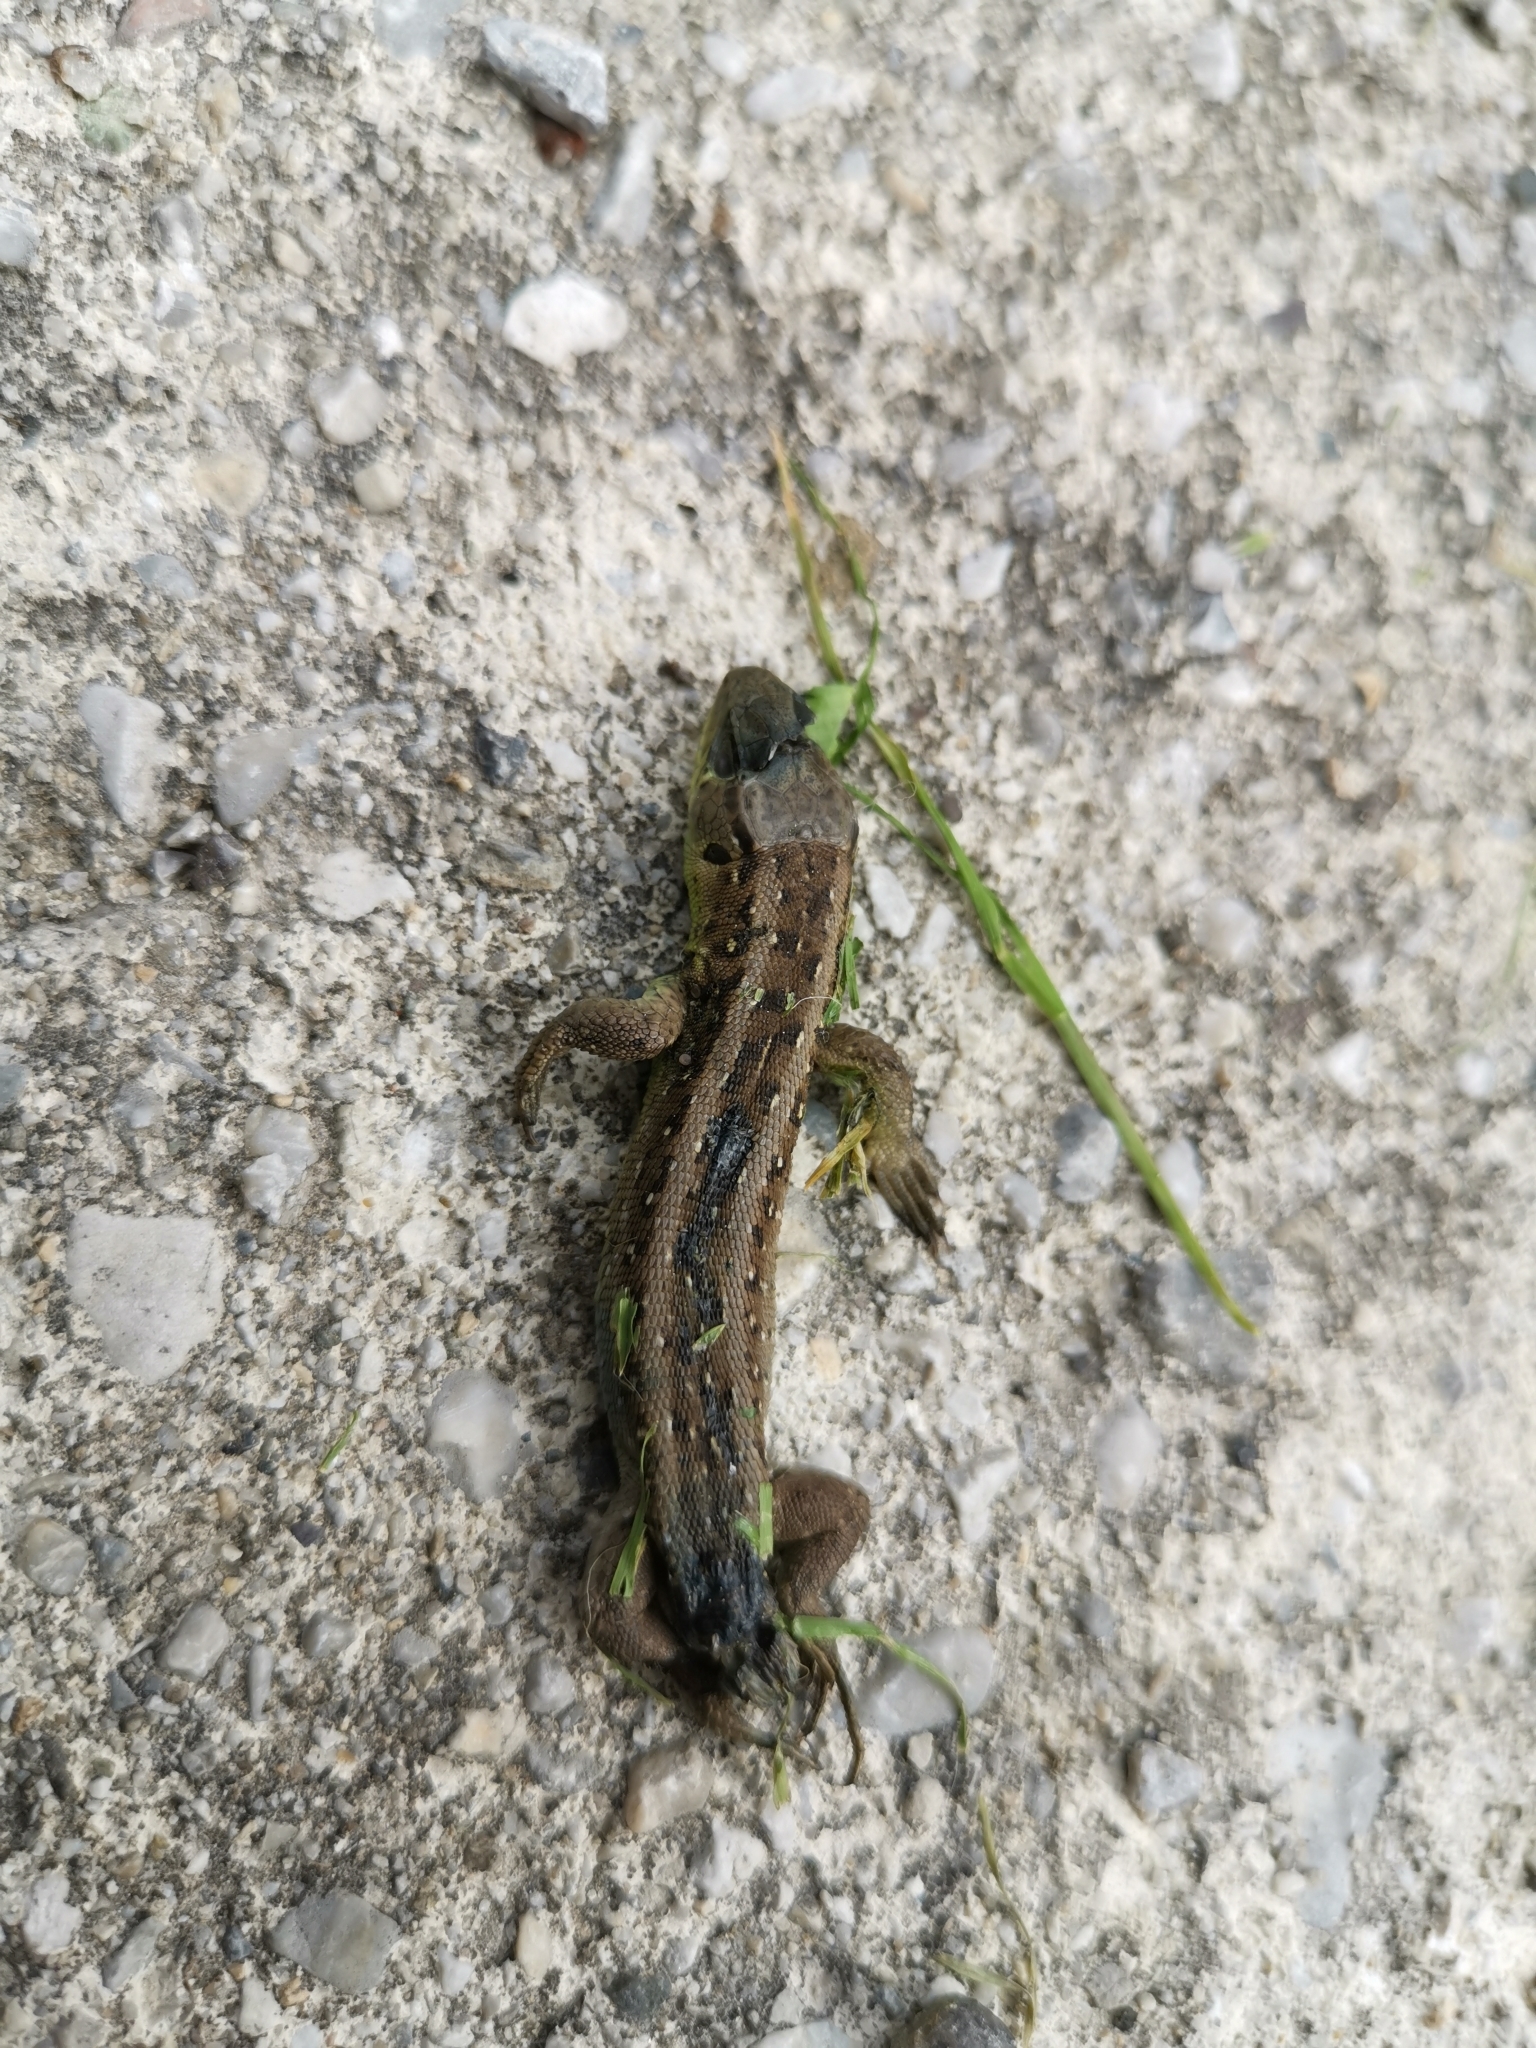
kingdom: Animalia
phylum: Chordata
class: Squamata
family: Lacertidae
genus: Lacerta
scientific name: Lacerta agilis
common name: Sand lizard
